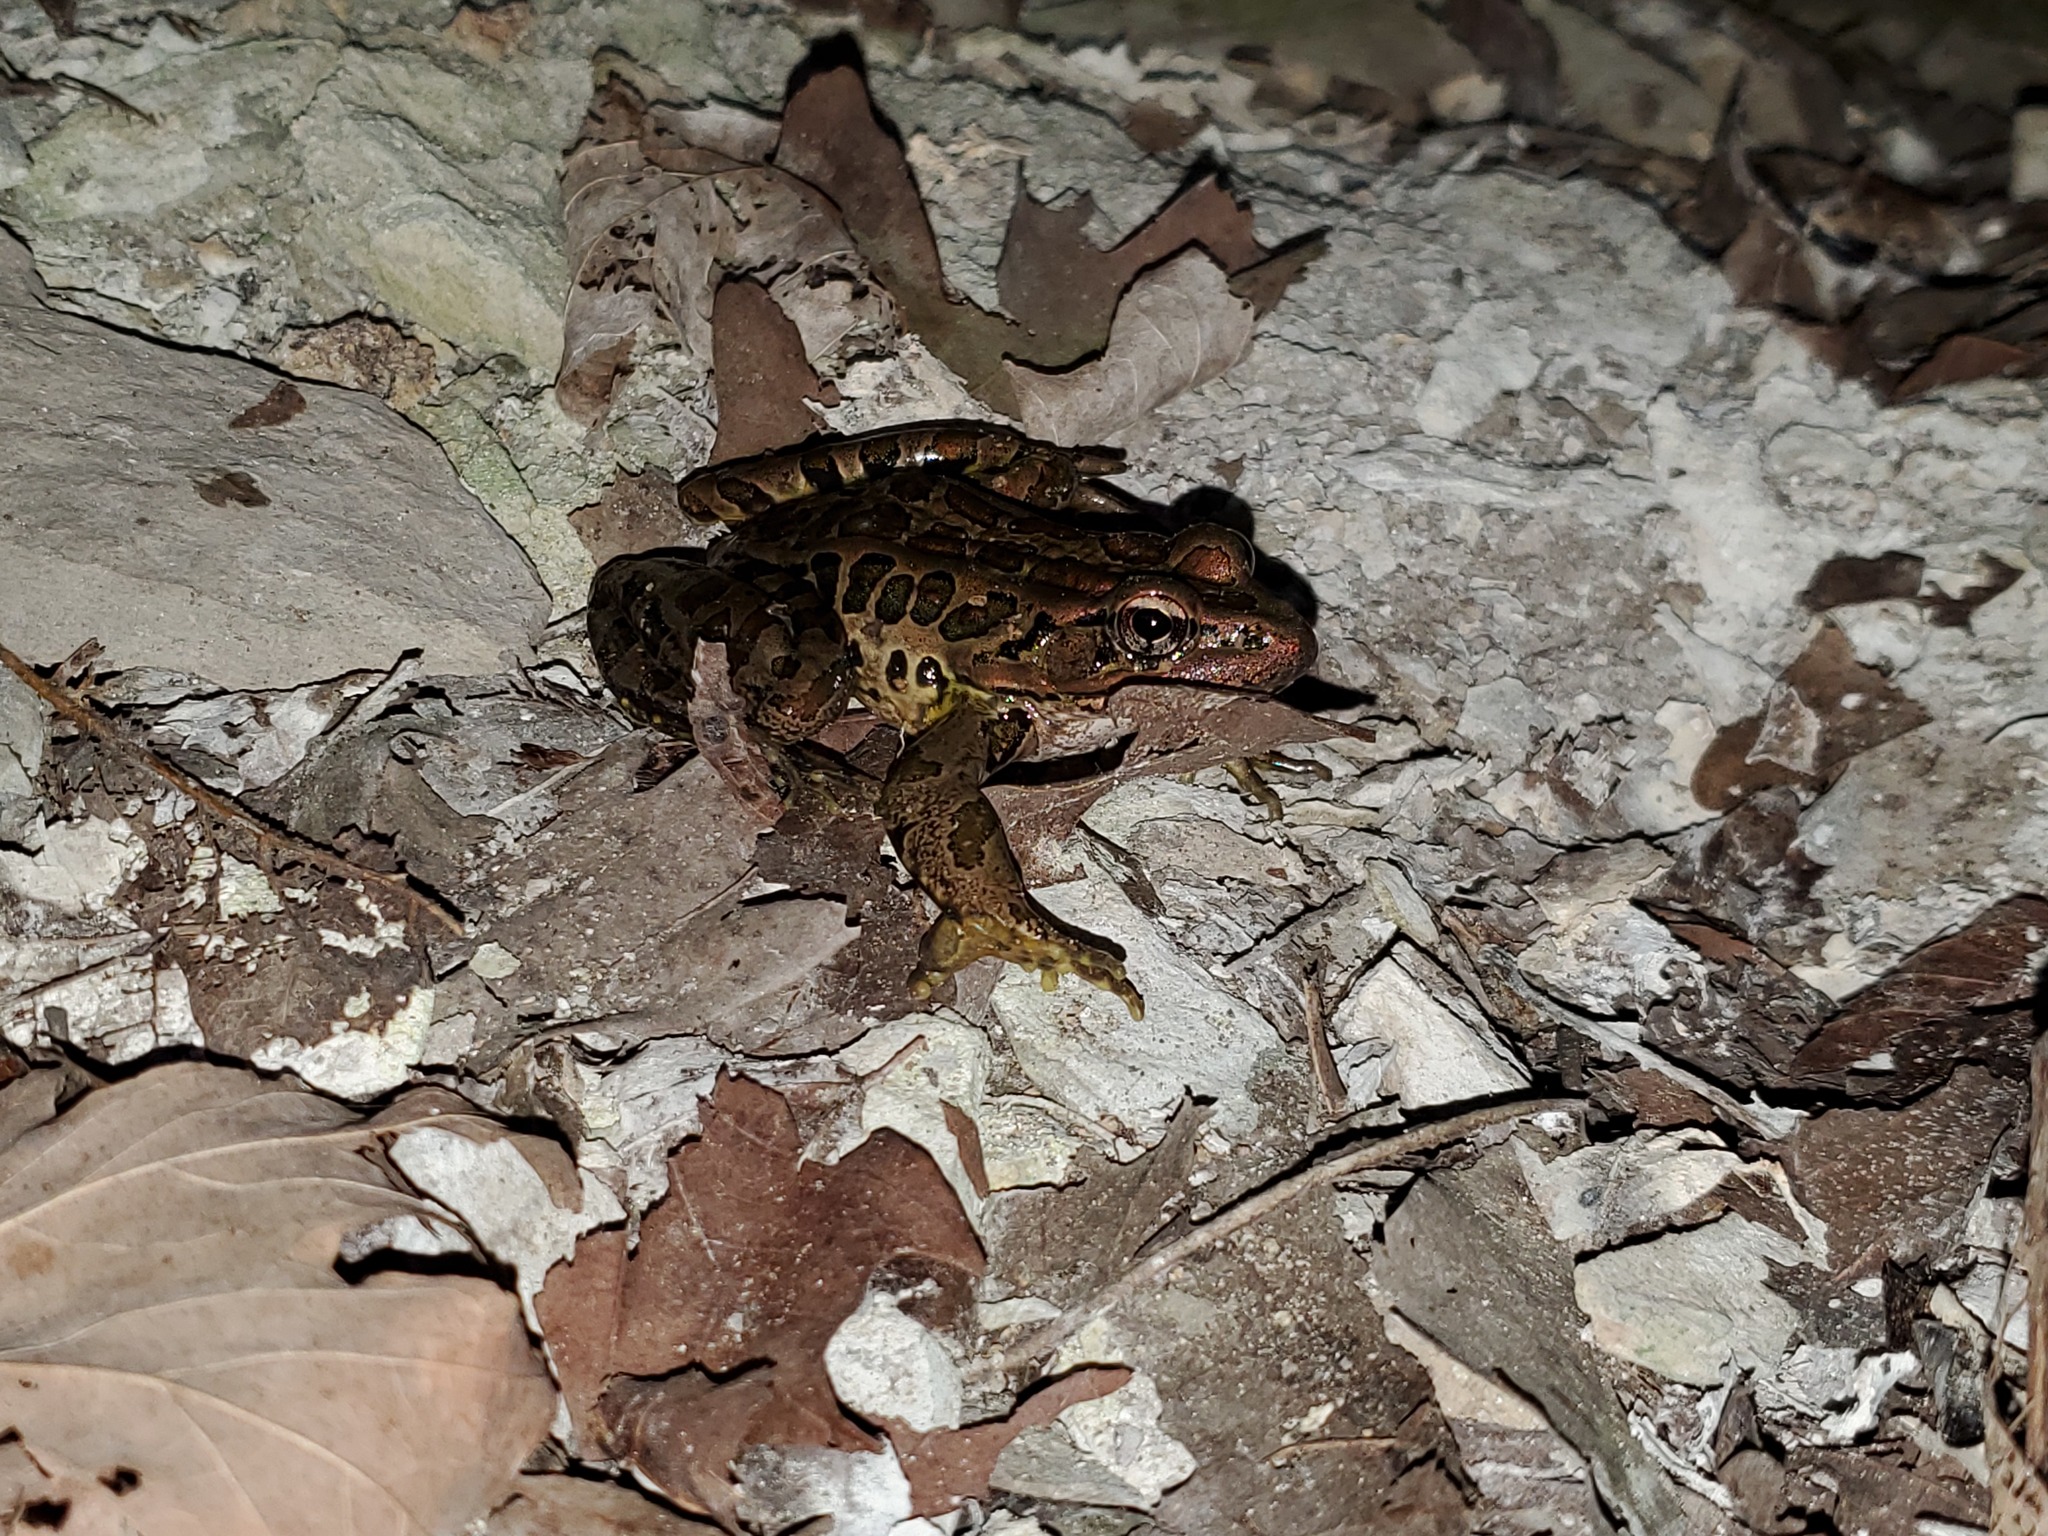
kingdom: Animalia
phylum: Chordata
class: Amphibia
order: Anura
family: Ranidae
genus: Lithobates
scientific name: Lithobates palustris
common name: Pickerel frog
